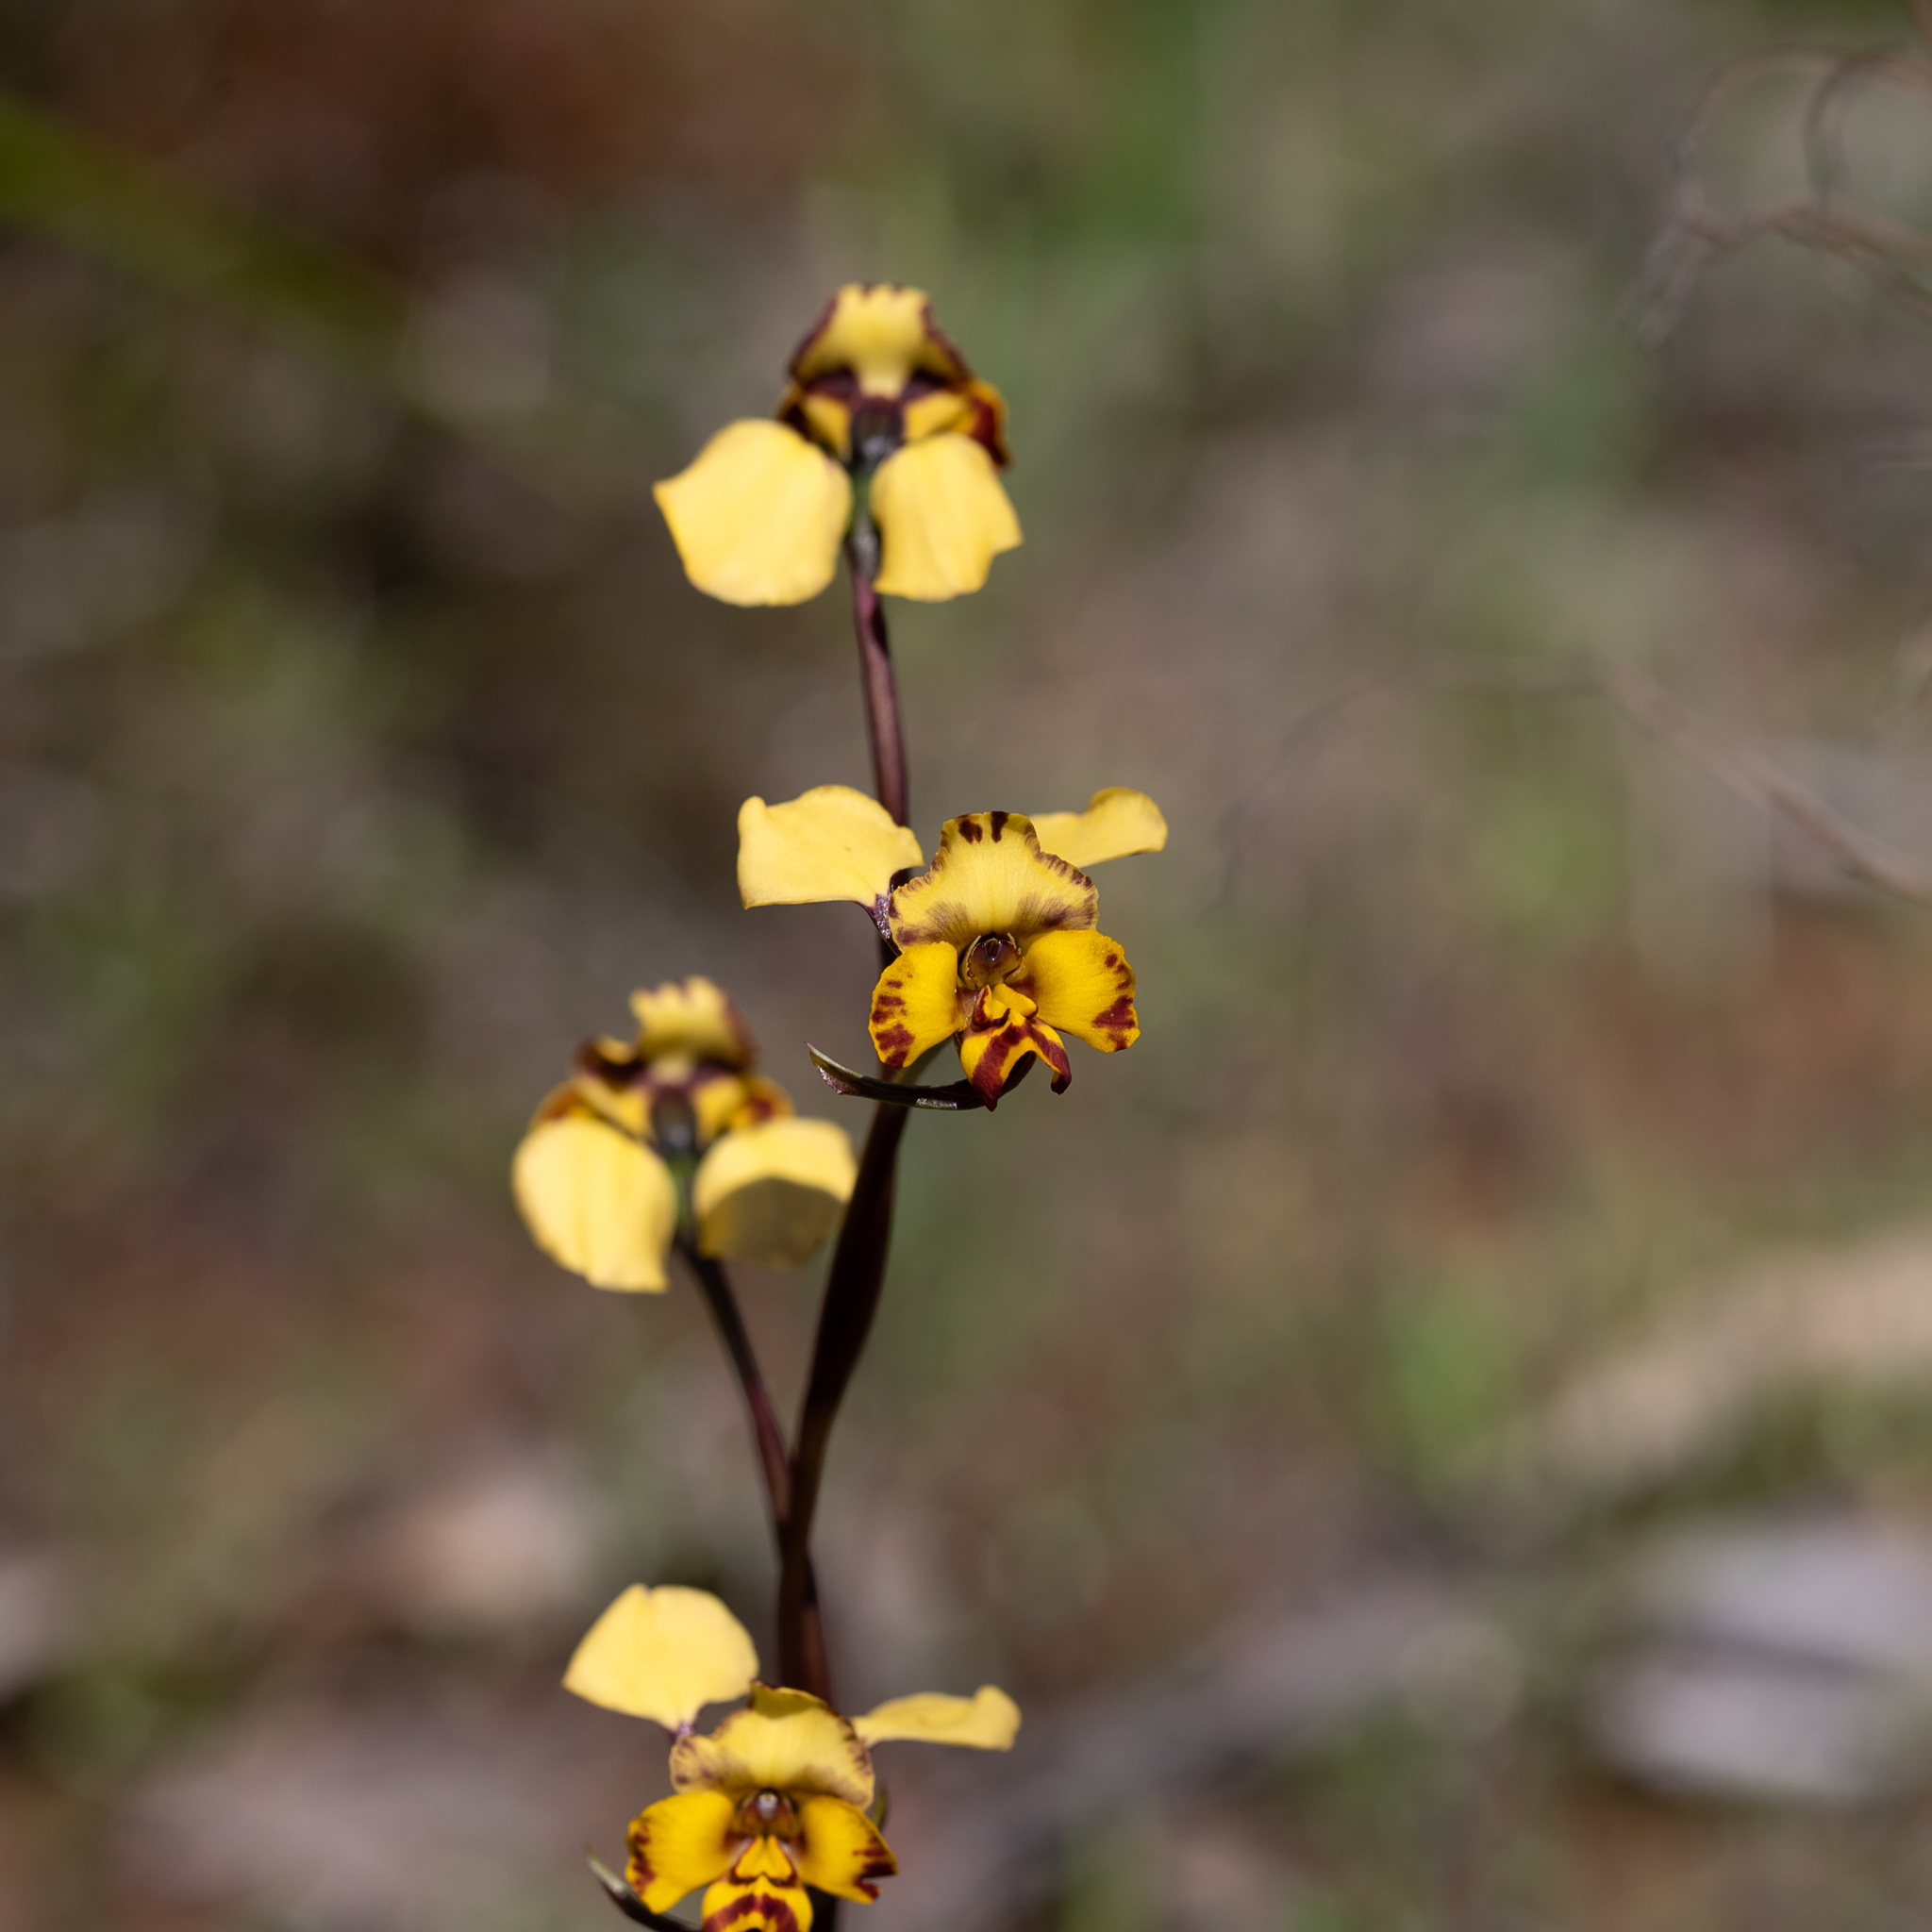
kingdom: Plantae
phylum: Tracheophyta
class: Liliopsida
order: Asparagales
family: Orchidaceae
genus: Diuris
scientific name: Diuris pardina
